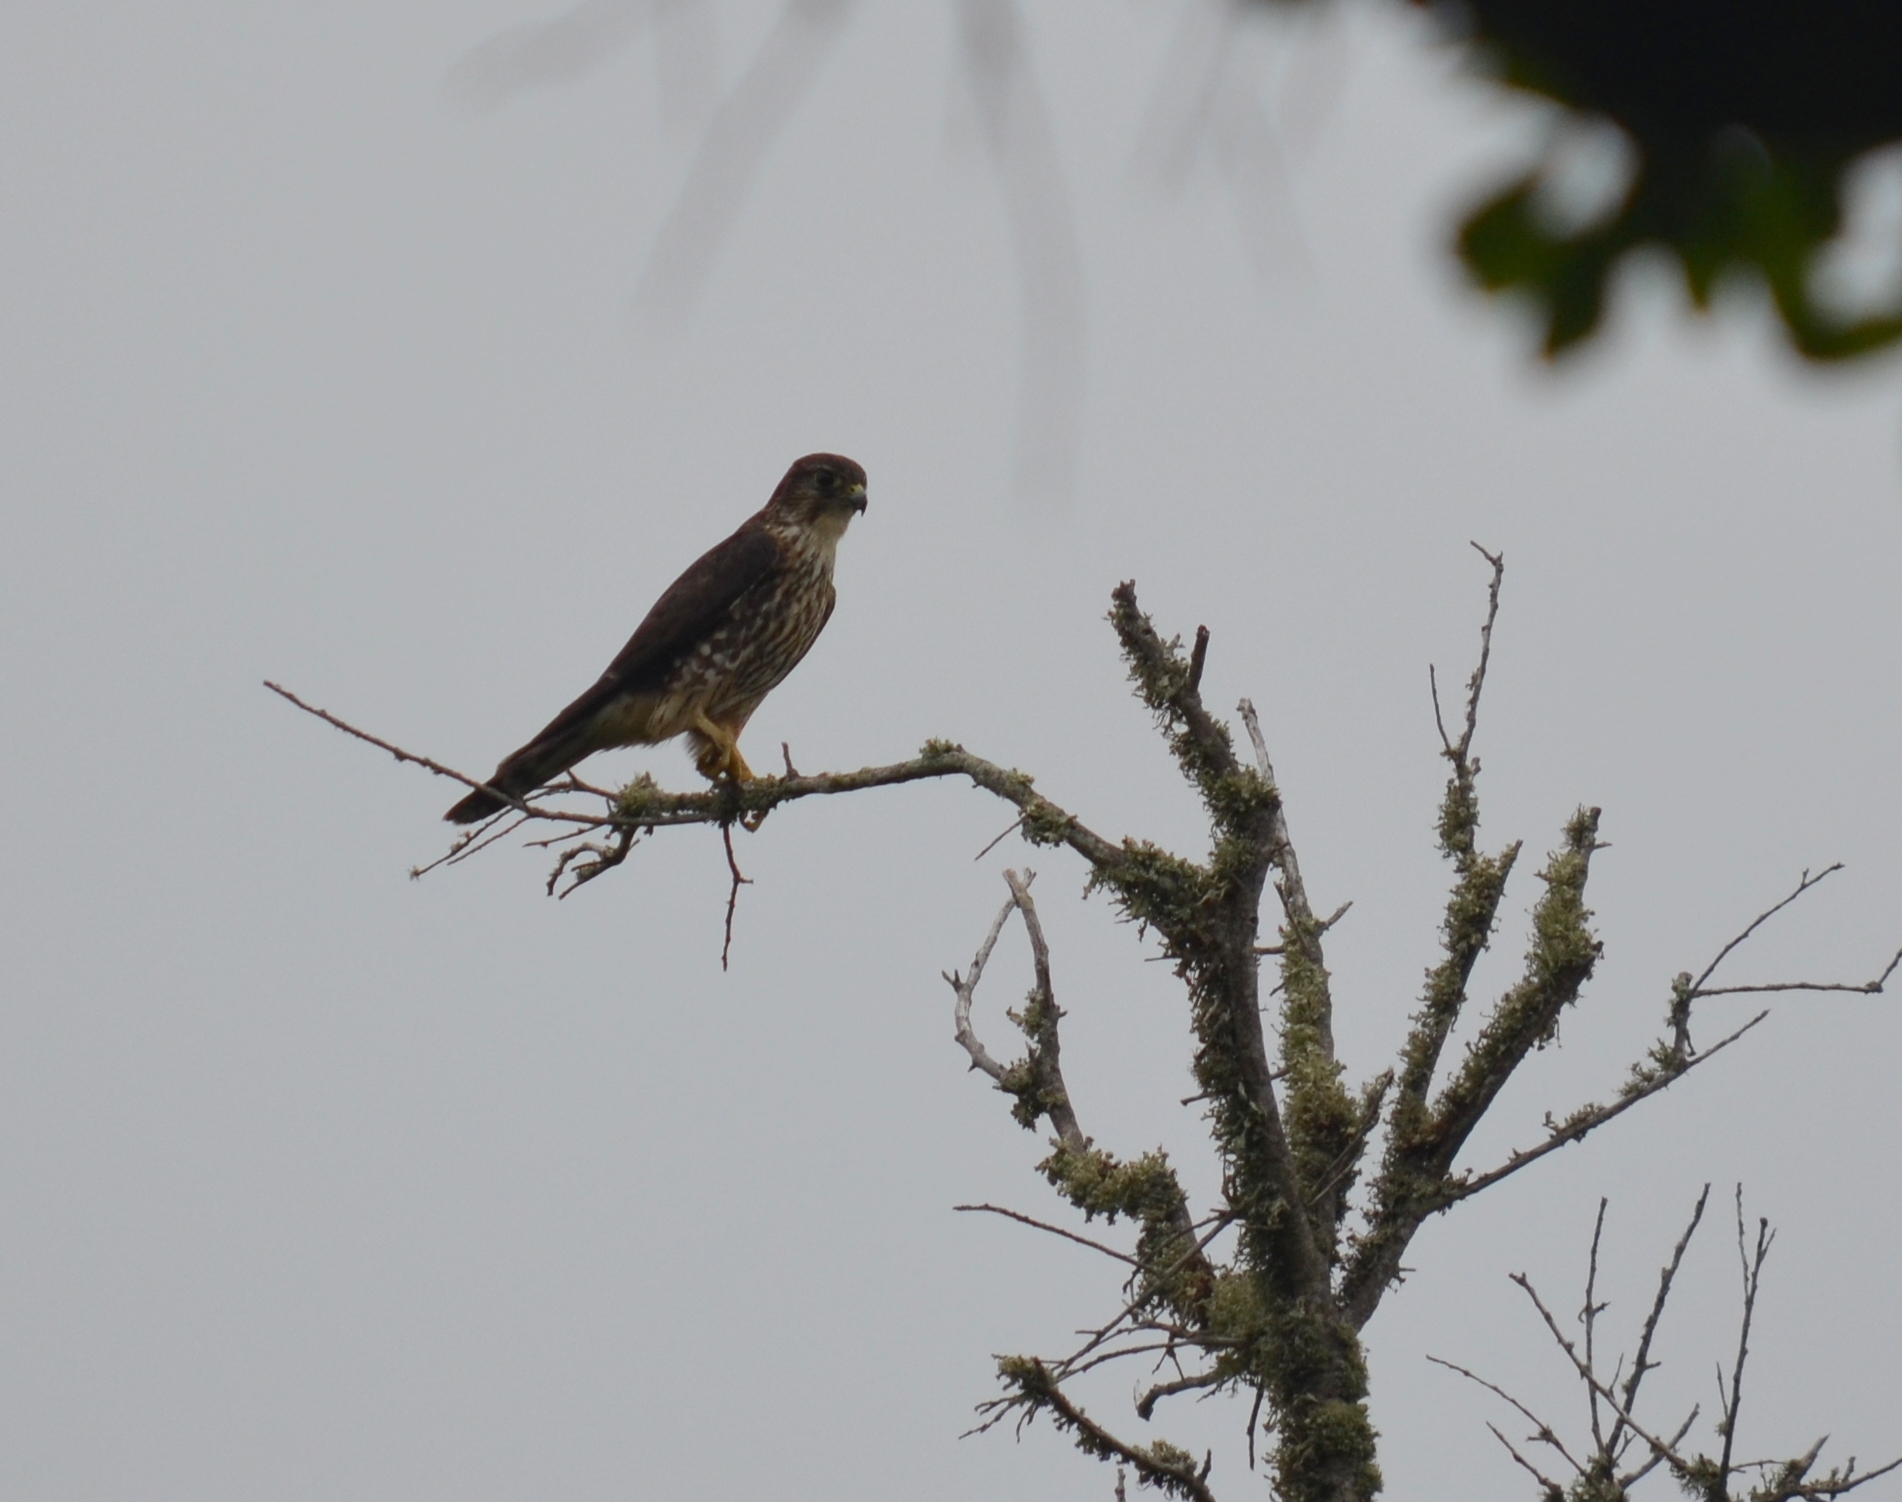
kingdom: Animalia
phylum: Chordata
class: Aves
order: Falconiformes
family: Falconidae
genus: Falco
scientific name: Falco columbarius
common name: Merlin
